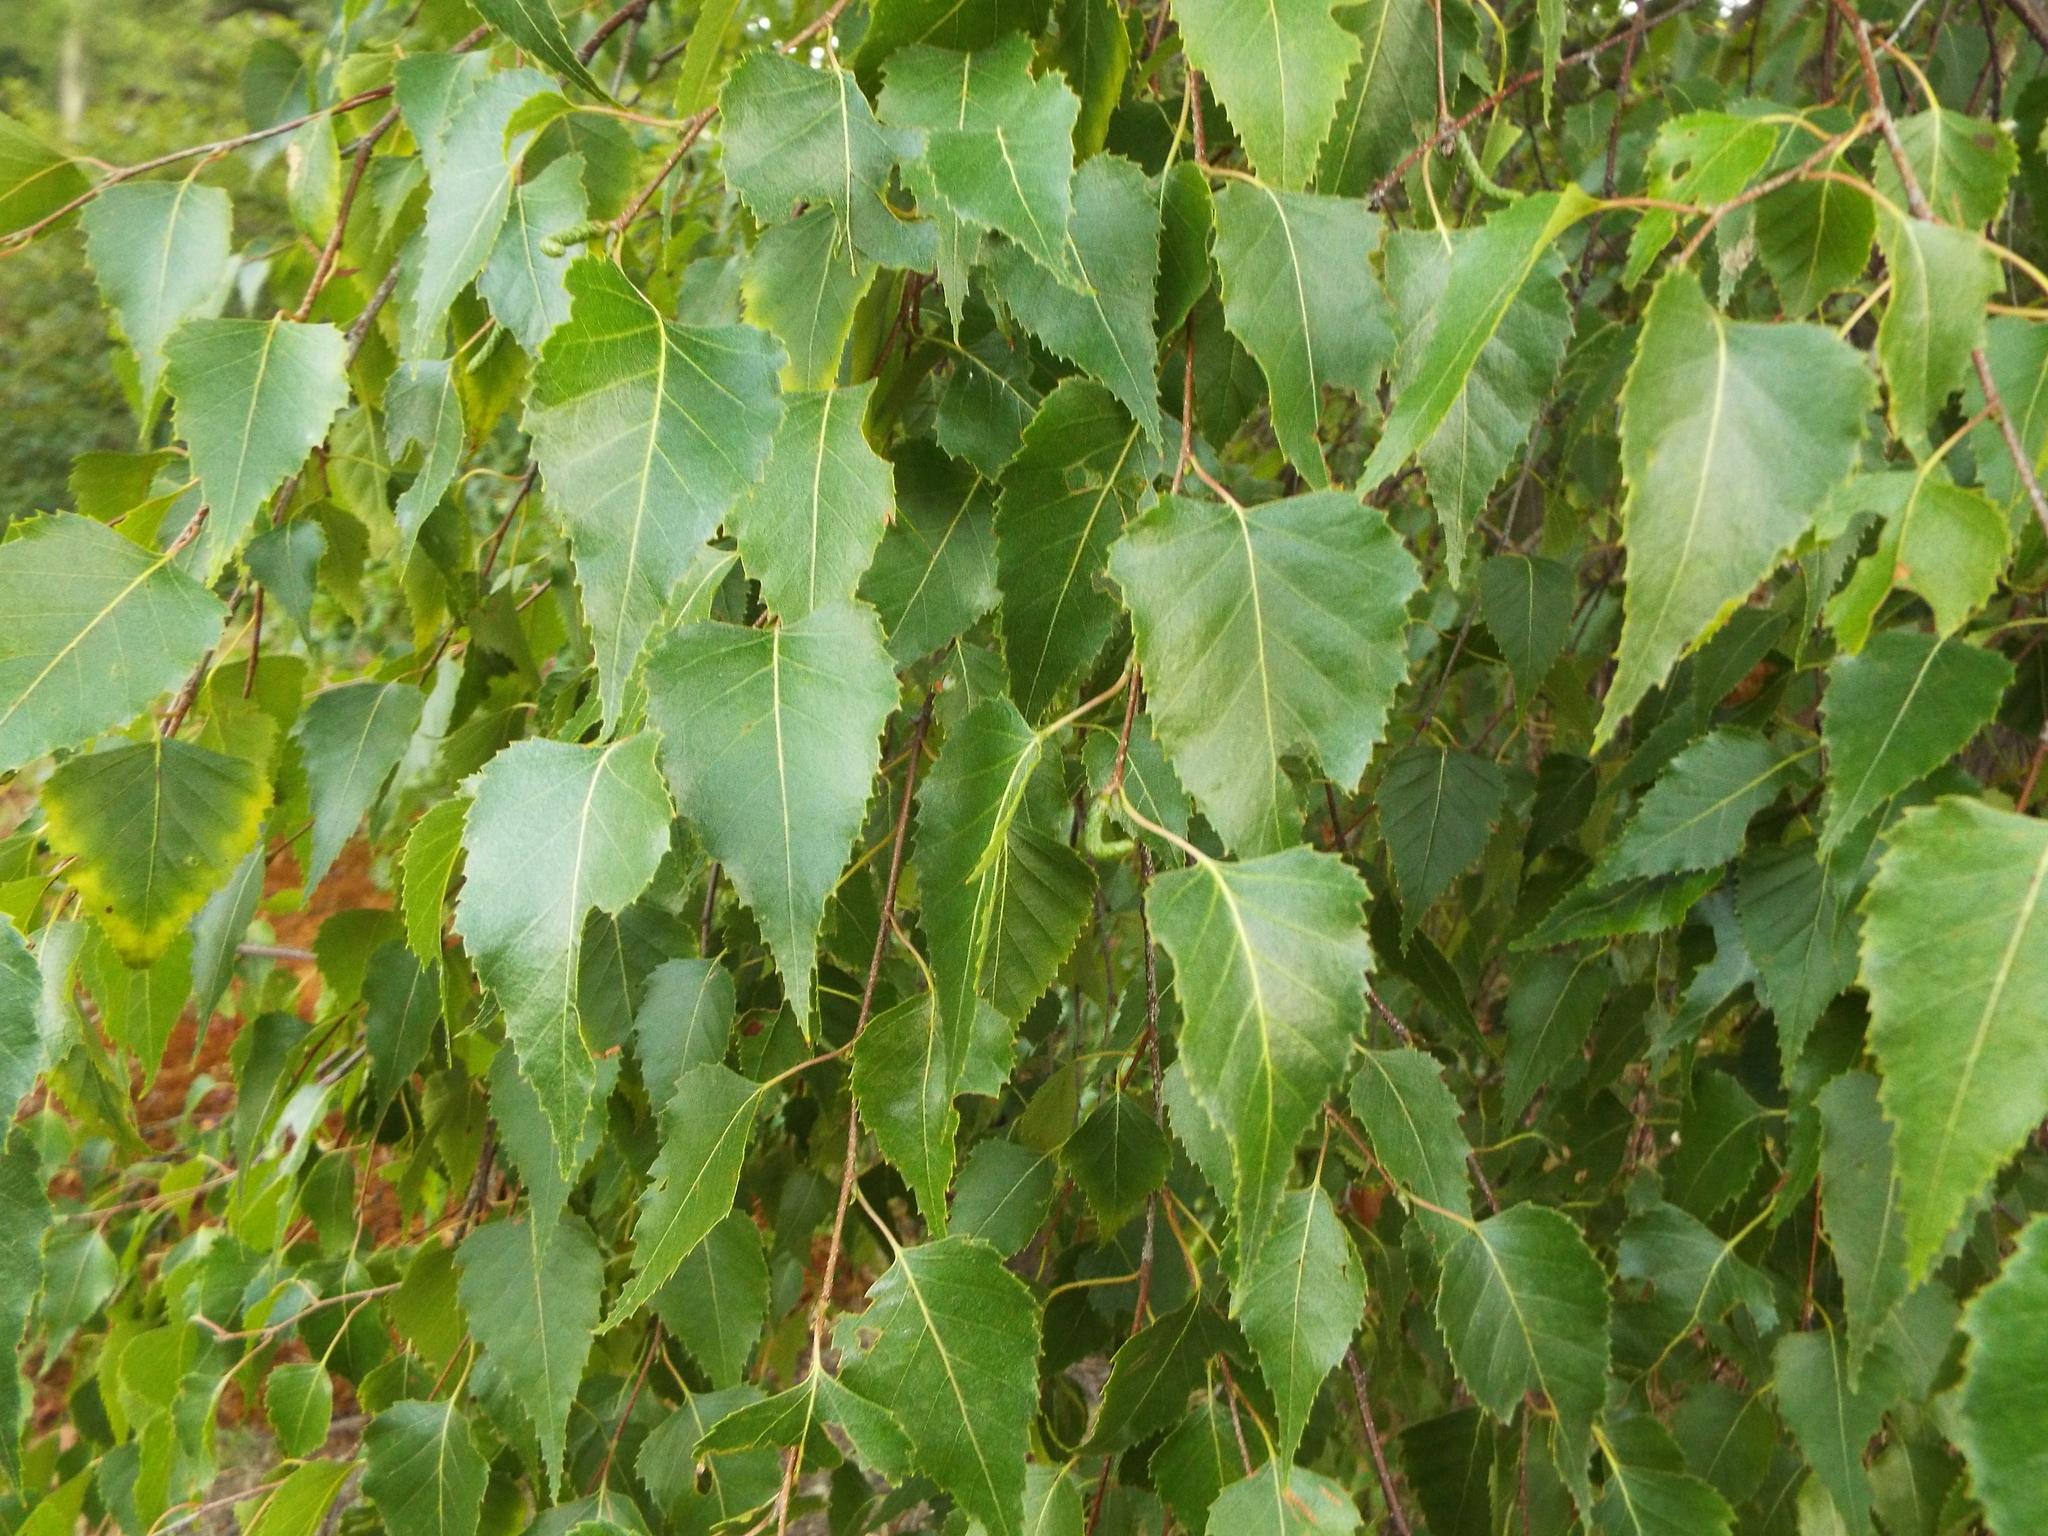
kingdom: Plantae
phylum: Tracheophyta
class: Magnoliopsida
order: Fagales
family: Betulaceae
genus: Betula
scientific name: Betula populifolia
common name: Fire birch
